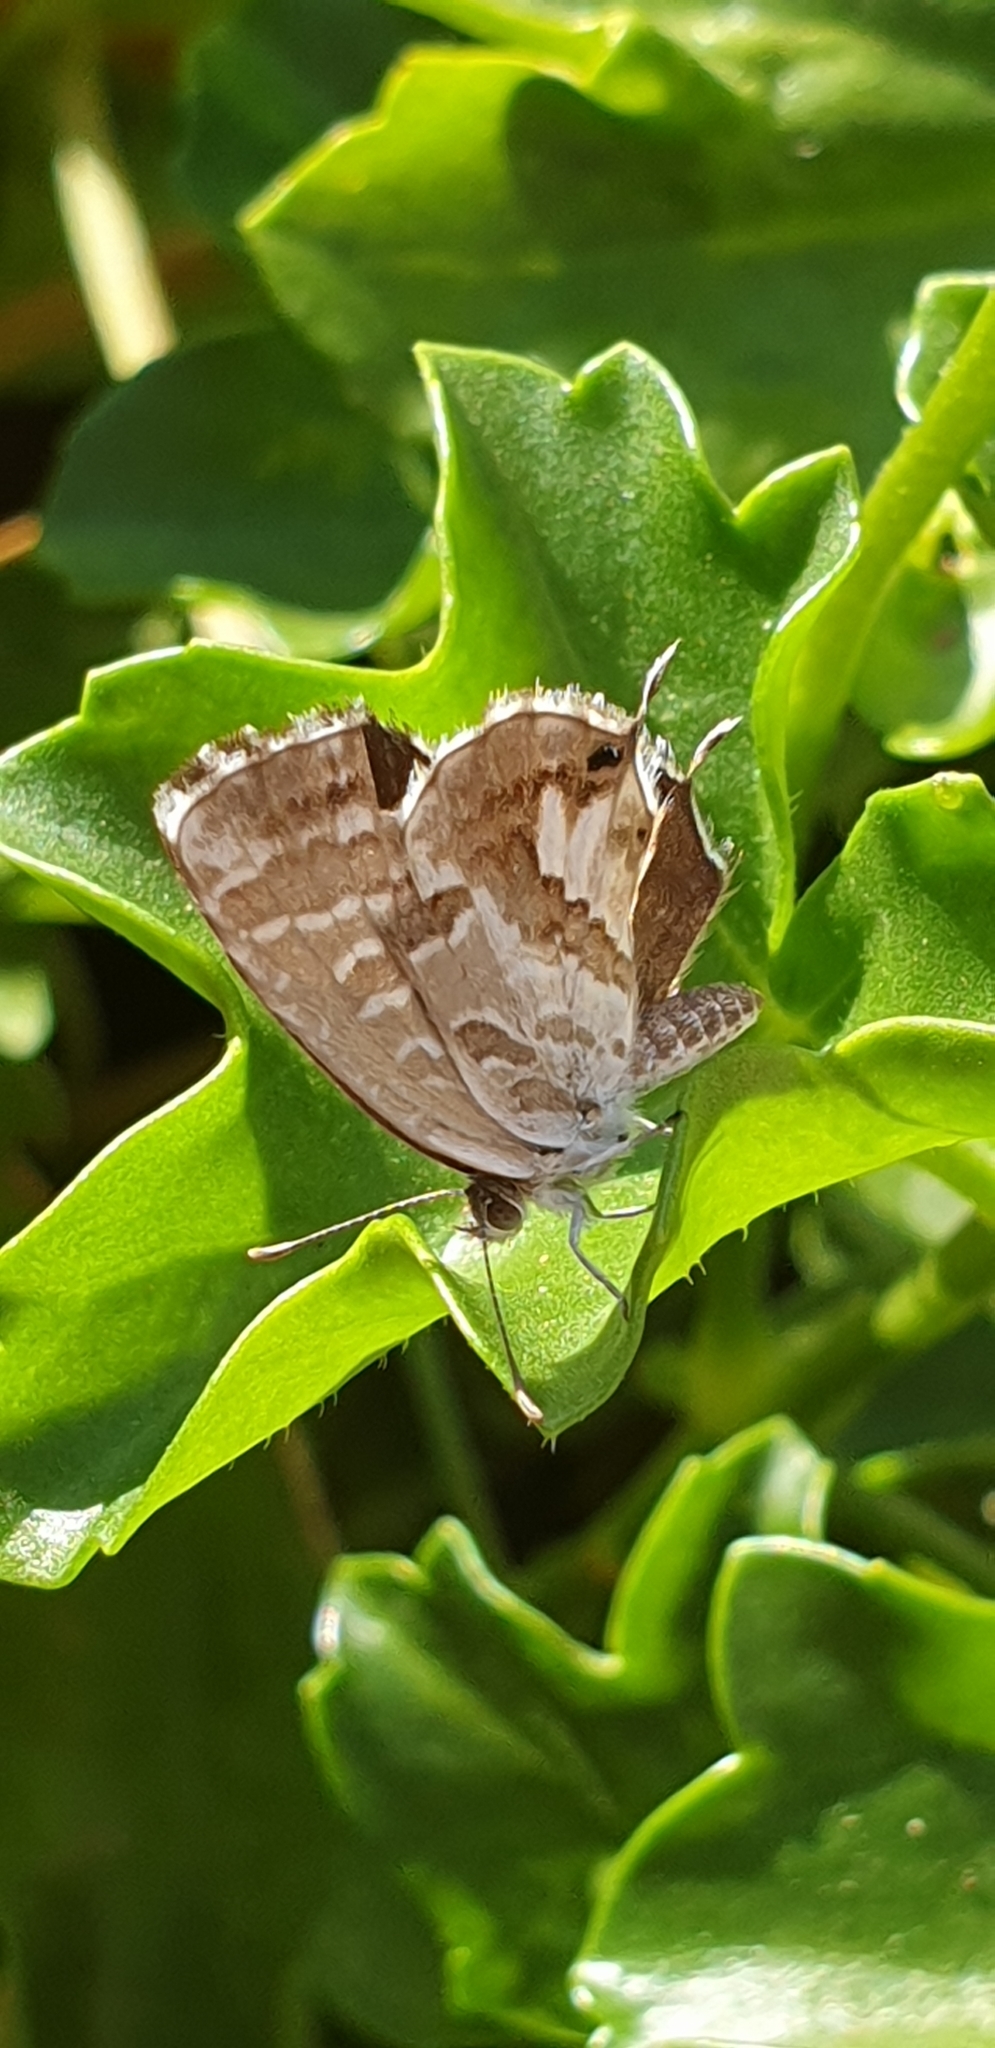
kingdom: Animalia
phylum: Arthropoda
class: Insecta
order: Lepidoptera
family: Lycaenidae
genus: Cacyreus
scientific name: Cacyreus marshalli
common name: Geranium bronze
